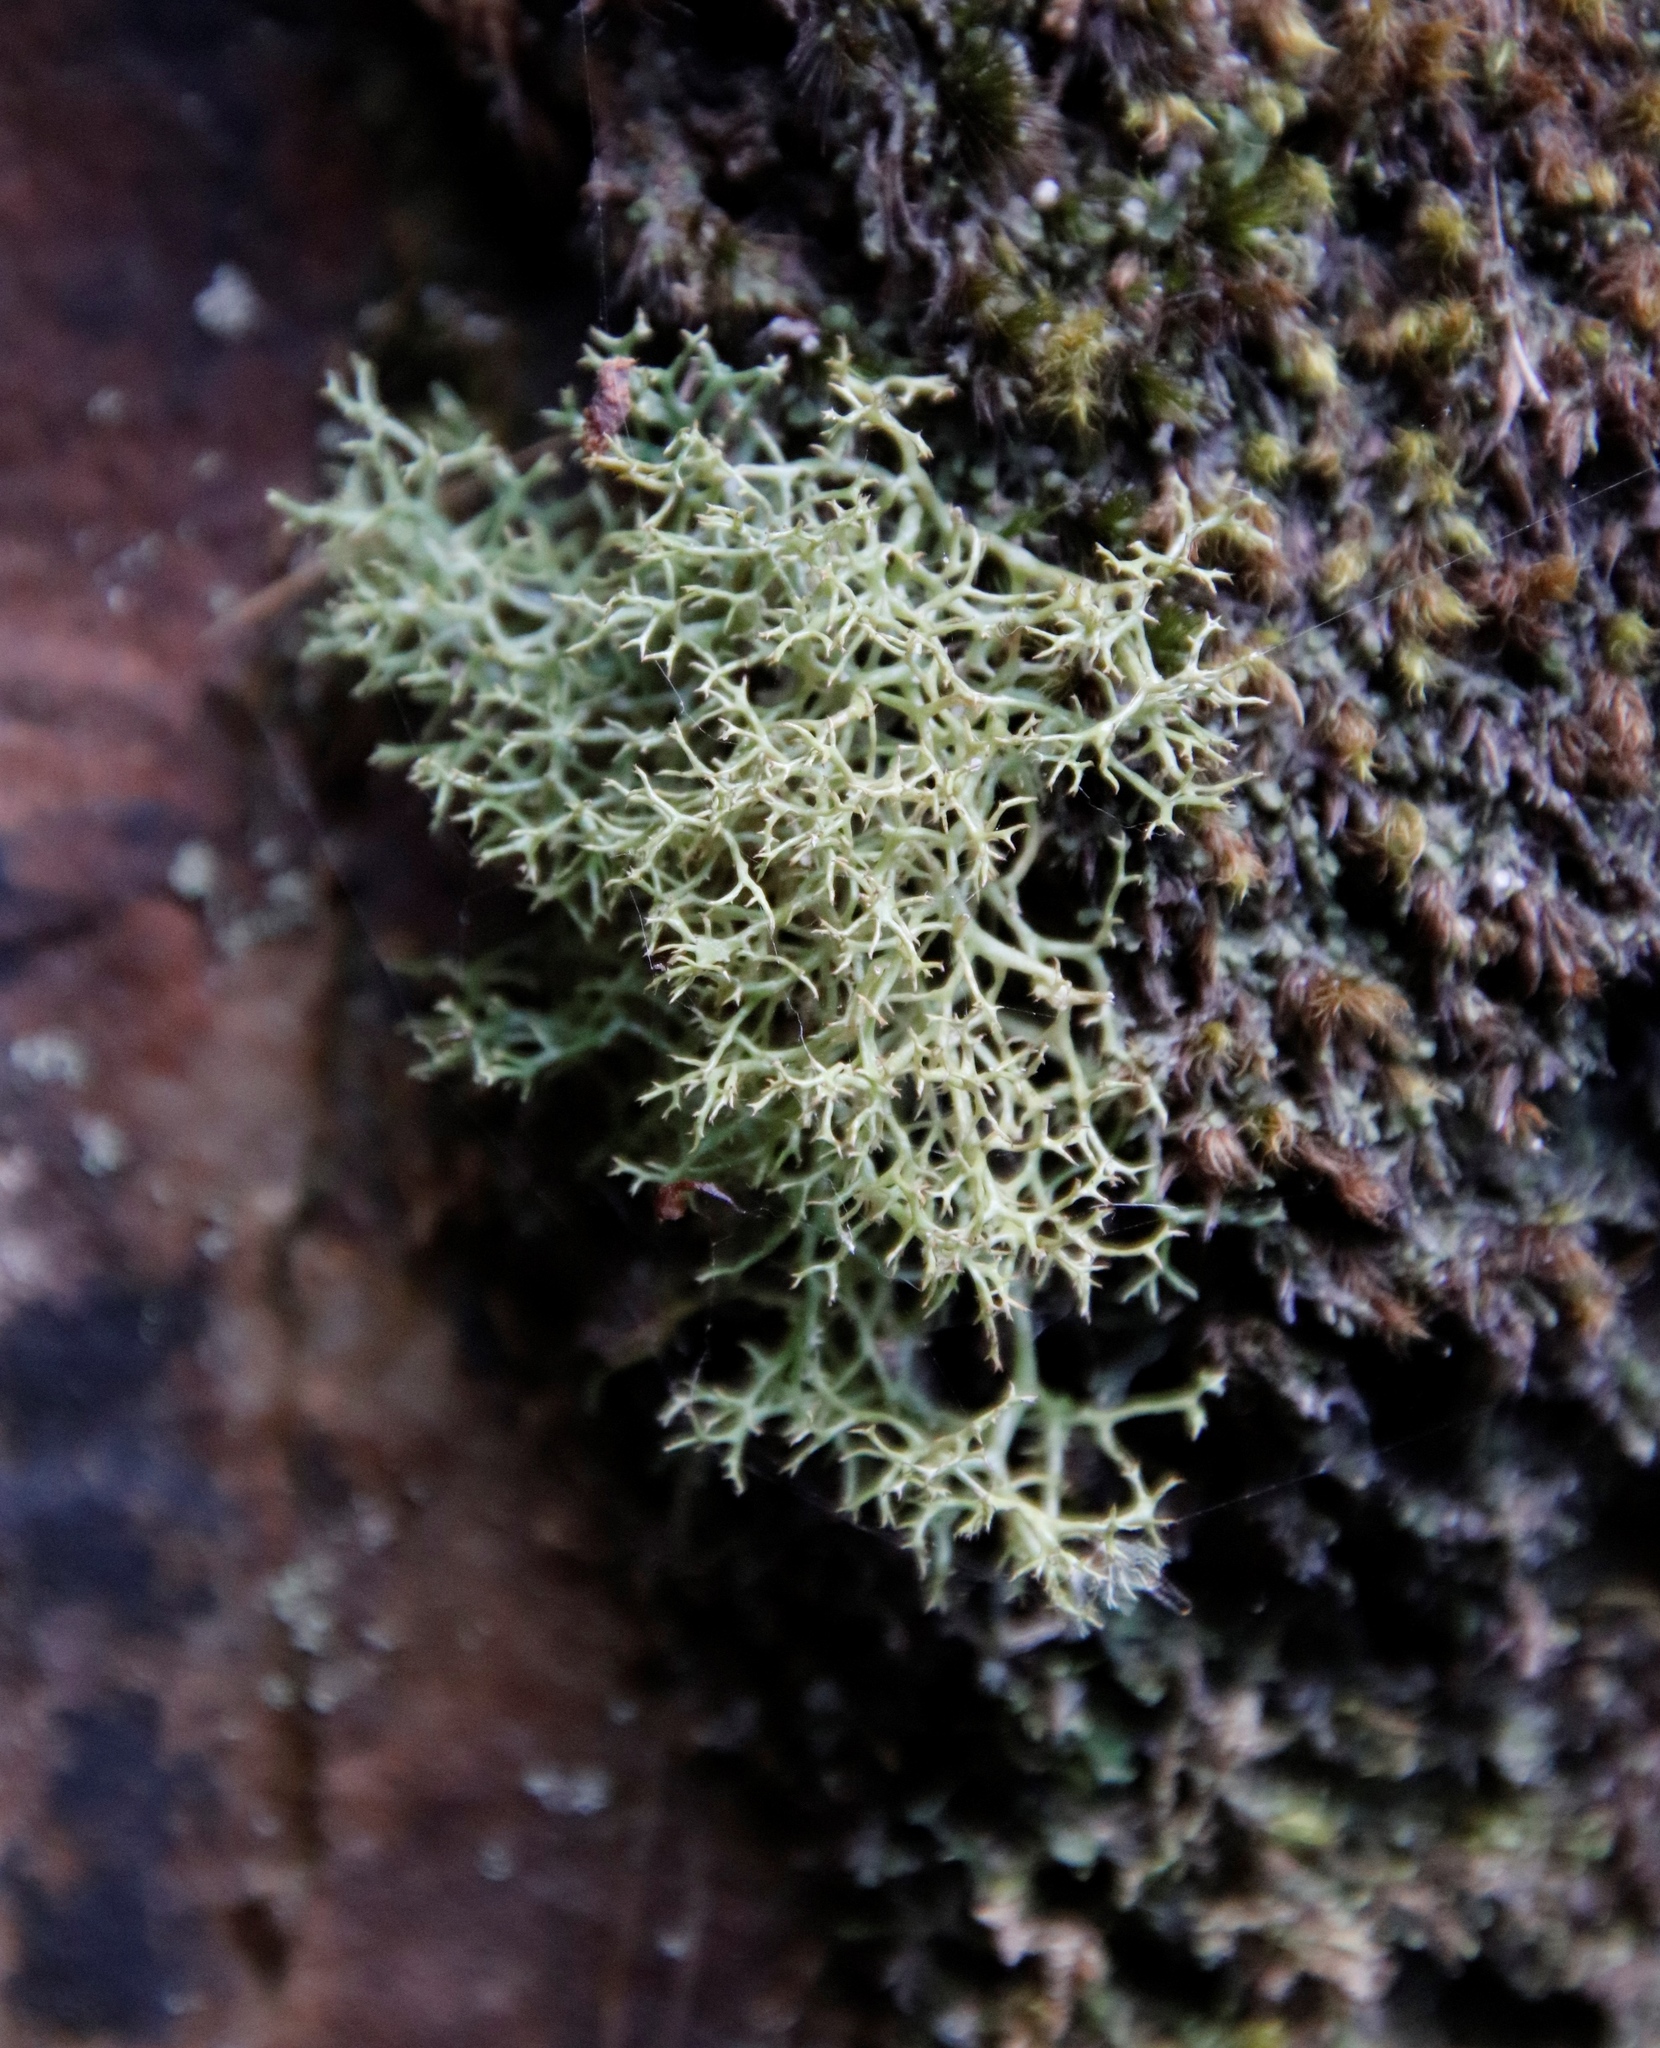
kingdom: Fungi
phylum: Ascomycota
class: Lecanoromycetes
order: Lecanorales
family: Cladoniaceae
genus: Cladonia
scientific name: Cladonia confusa
